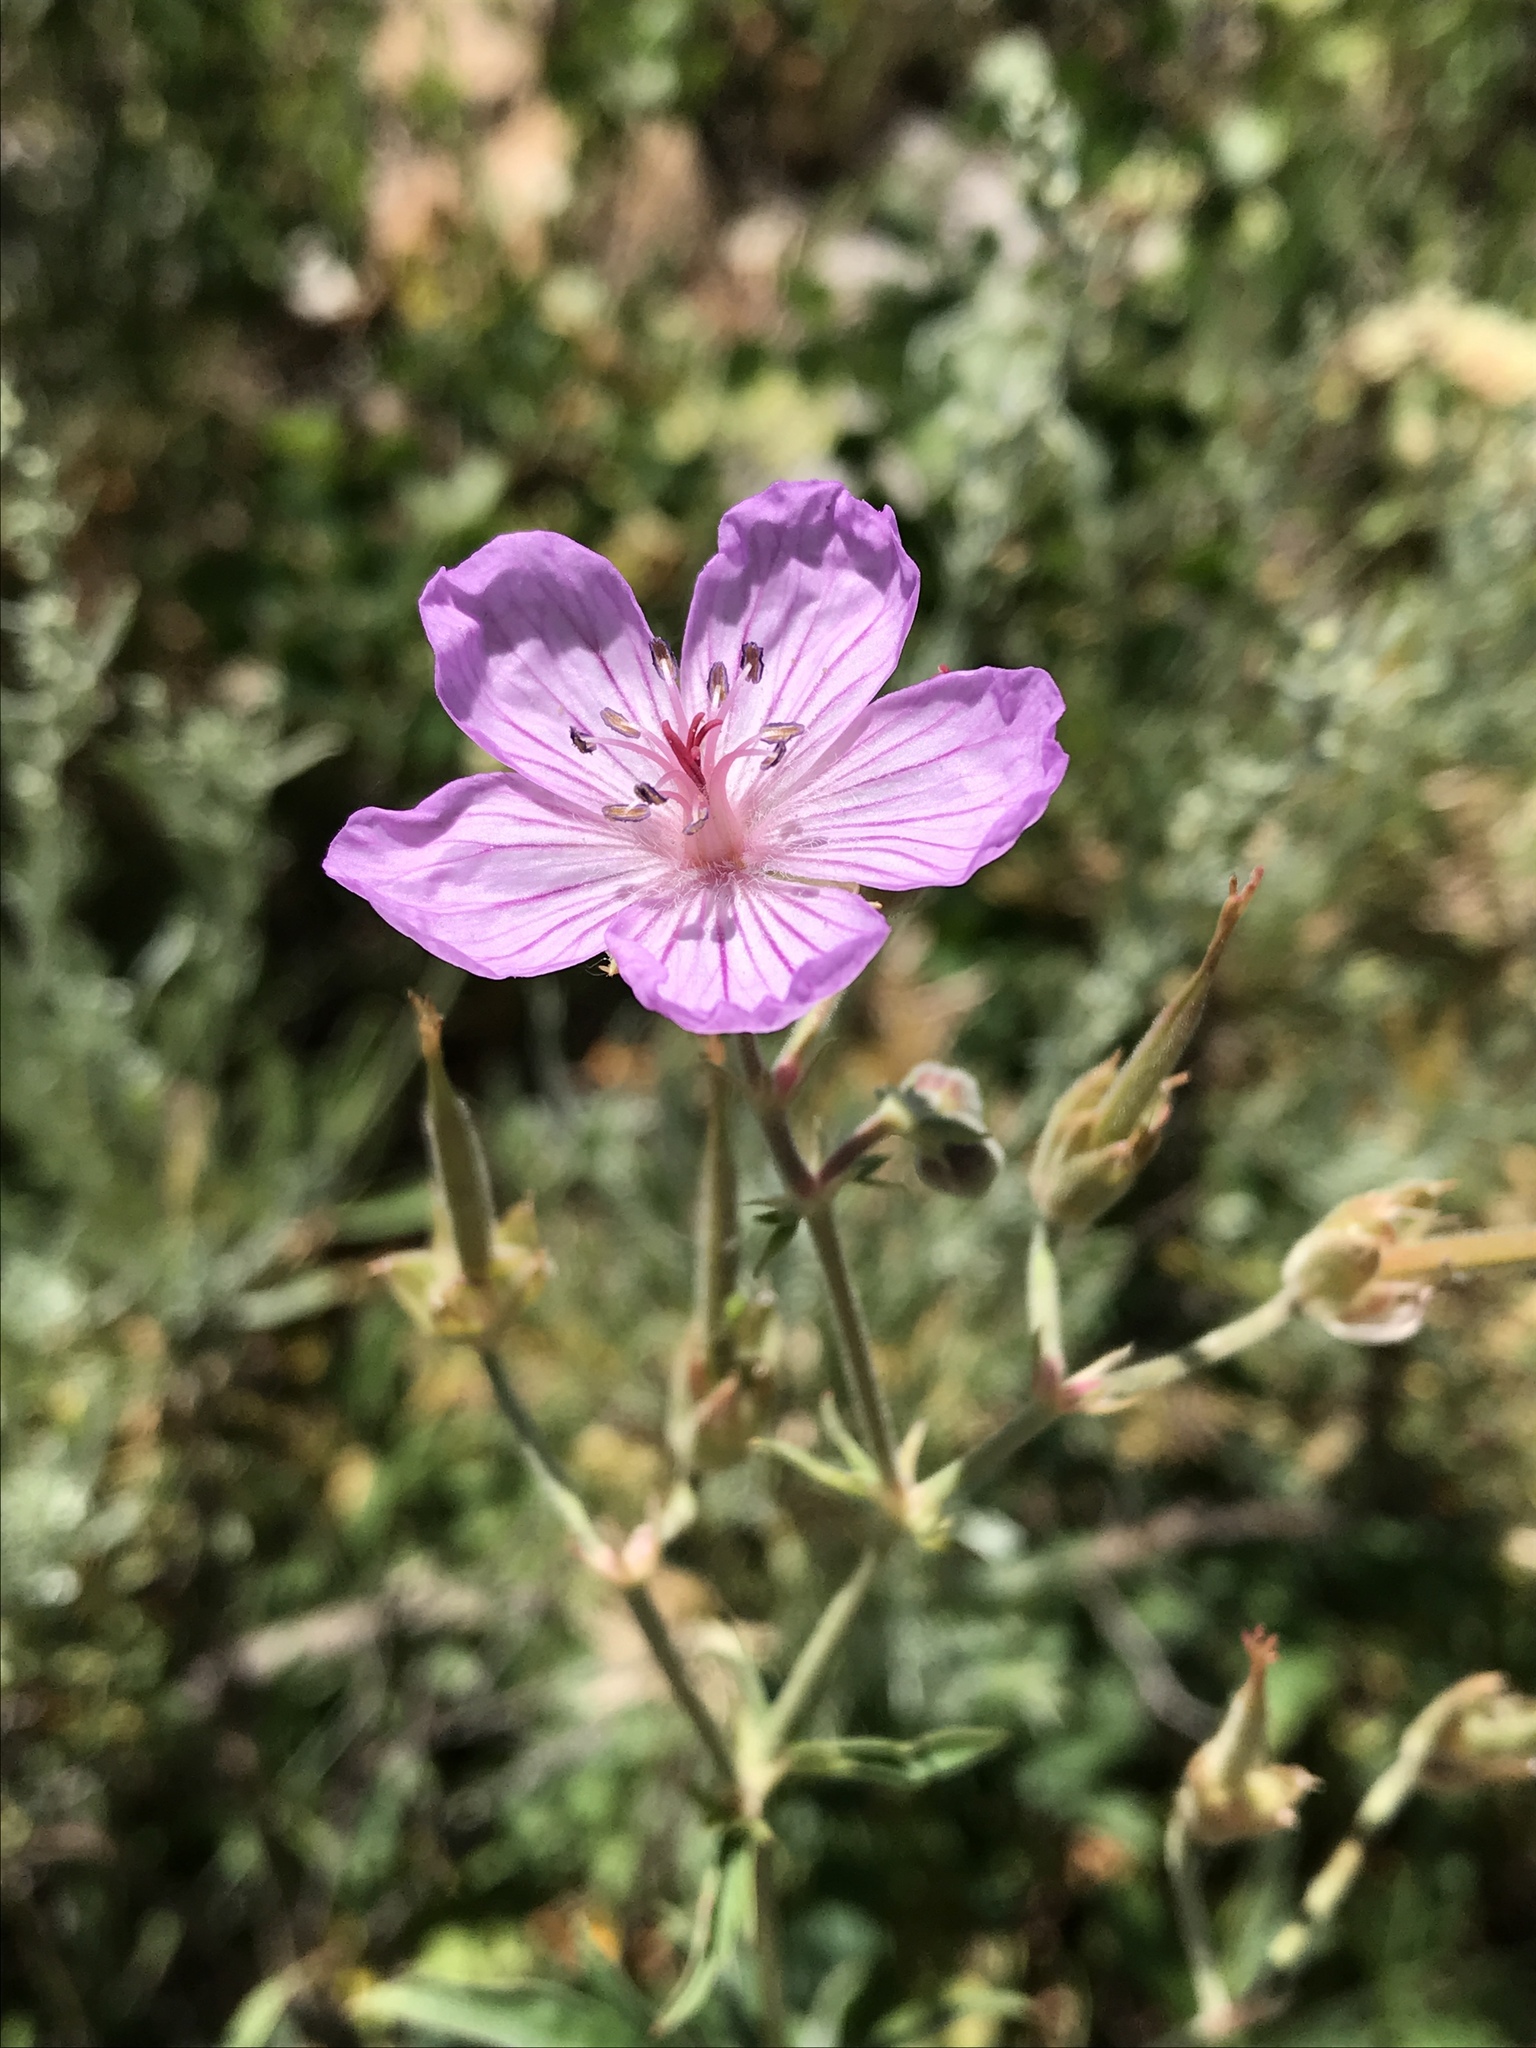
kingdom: Plantae
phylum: Tracheophyta
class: Magnoliopsida
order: Geraniales
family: Geraniaceae
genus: Geranium
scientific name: Geranium richardsonii
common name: Richardson's crane's-bill
